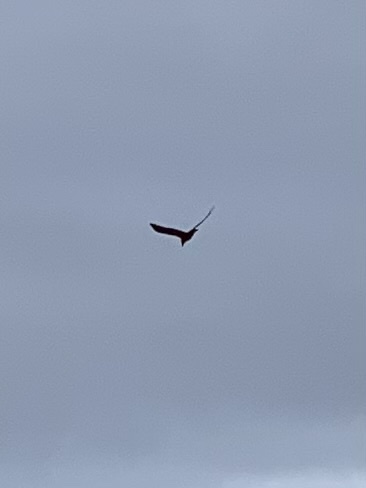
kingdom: Animalia
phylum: Chordata
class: Aves
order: Passeriformes
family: Corvidae
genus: Corvus
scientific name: Corvus corax
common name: Common raven
